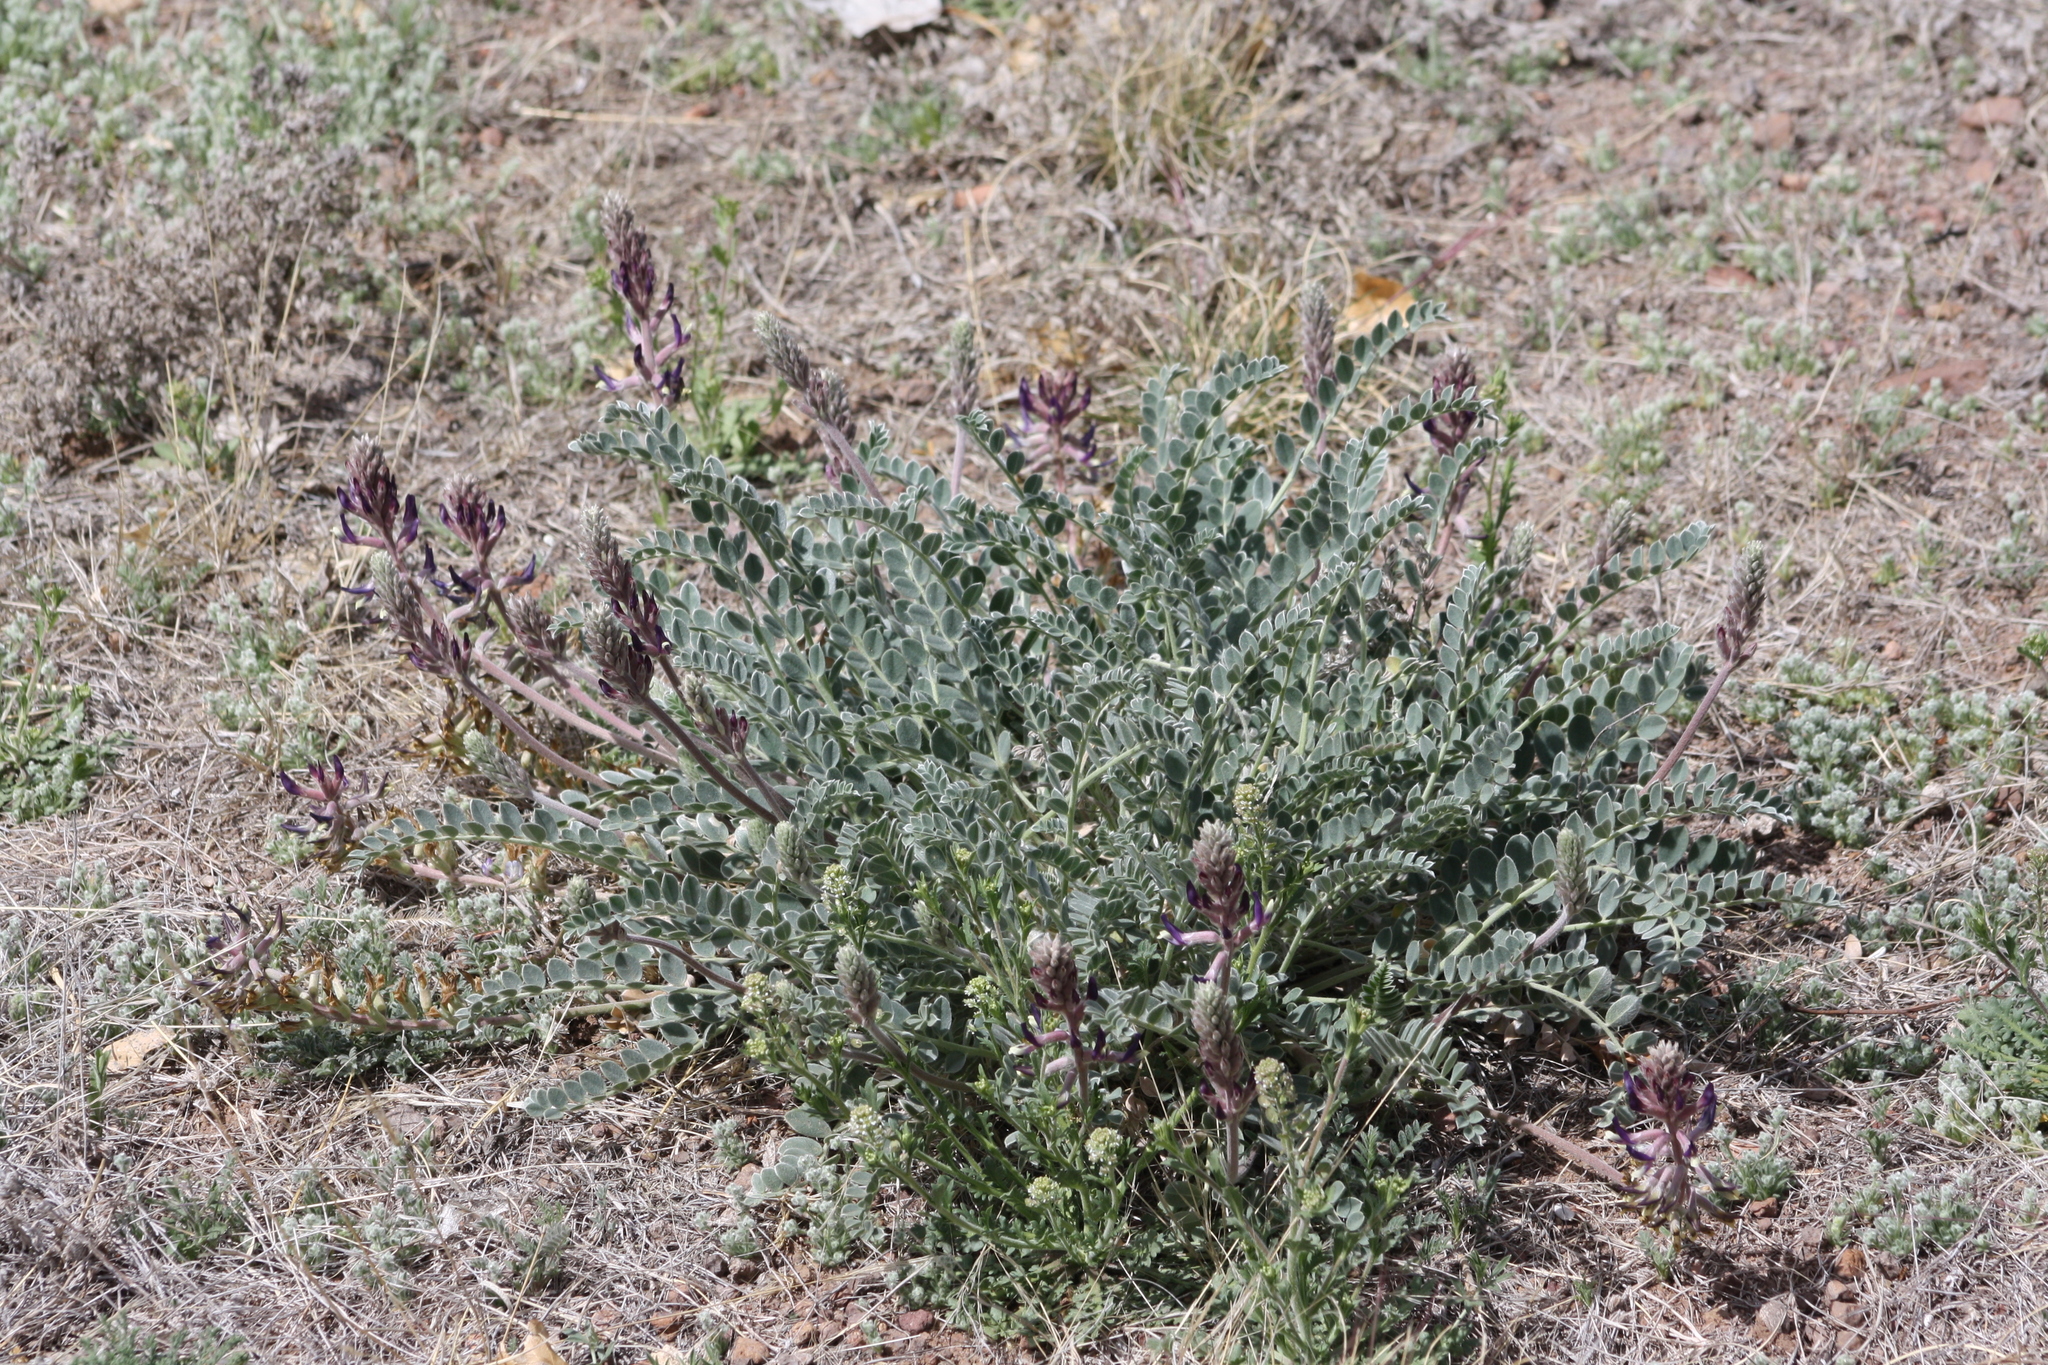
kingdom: Plantae
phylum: Tracheophyta
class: Magnoliopsida
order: Fabales
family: Fabaceae
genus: Astragalus
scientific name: Astragalus mollissimus
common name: Woolly locoweed
